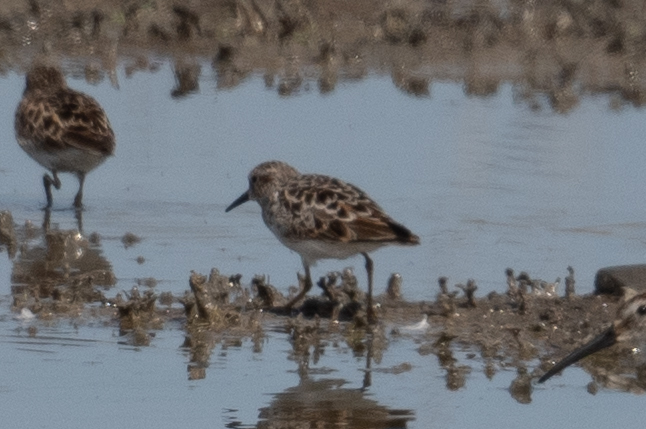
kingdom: Animalia
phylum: Chordata
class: Aves
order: Charadriiformes
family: Scolopacidae
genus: Calidris
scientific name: Calidris minutilla
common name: Least sandpiper
